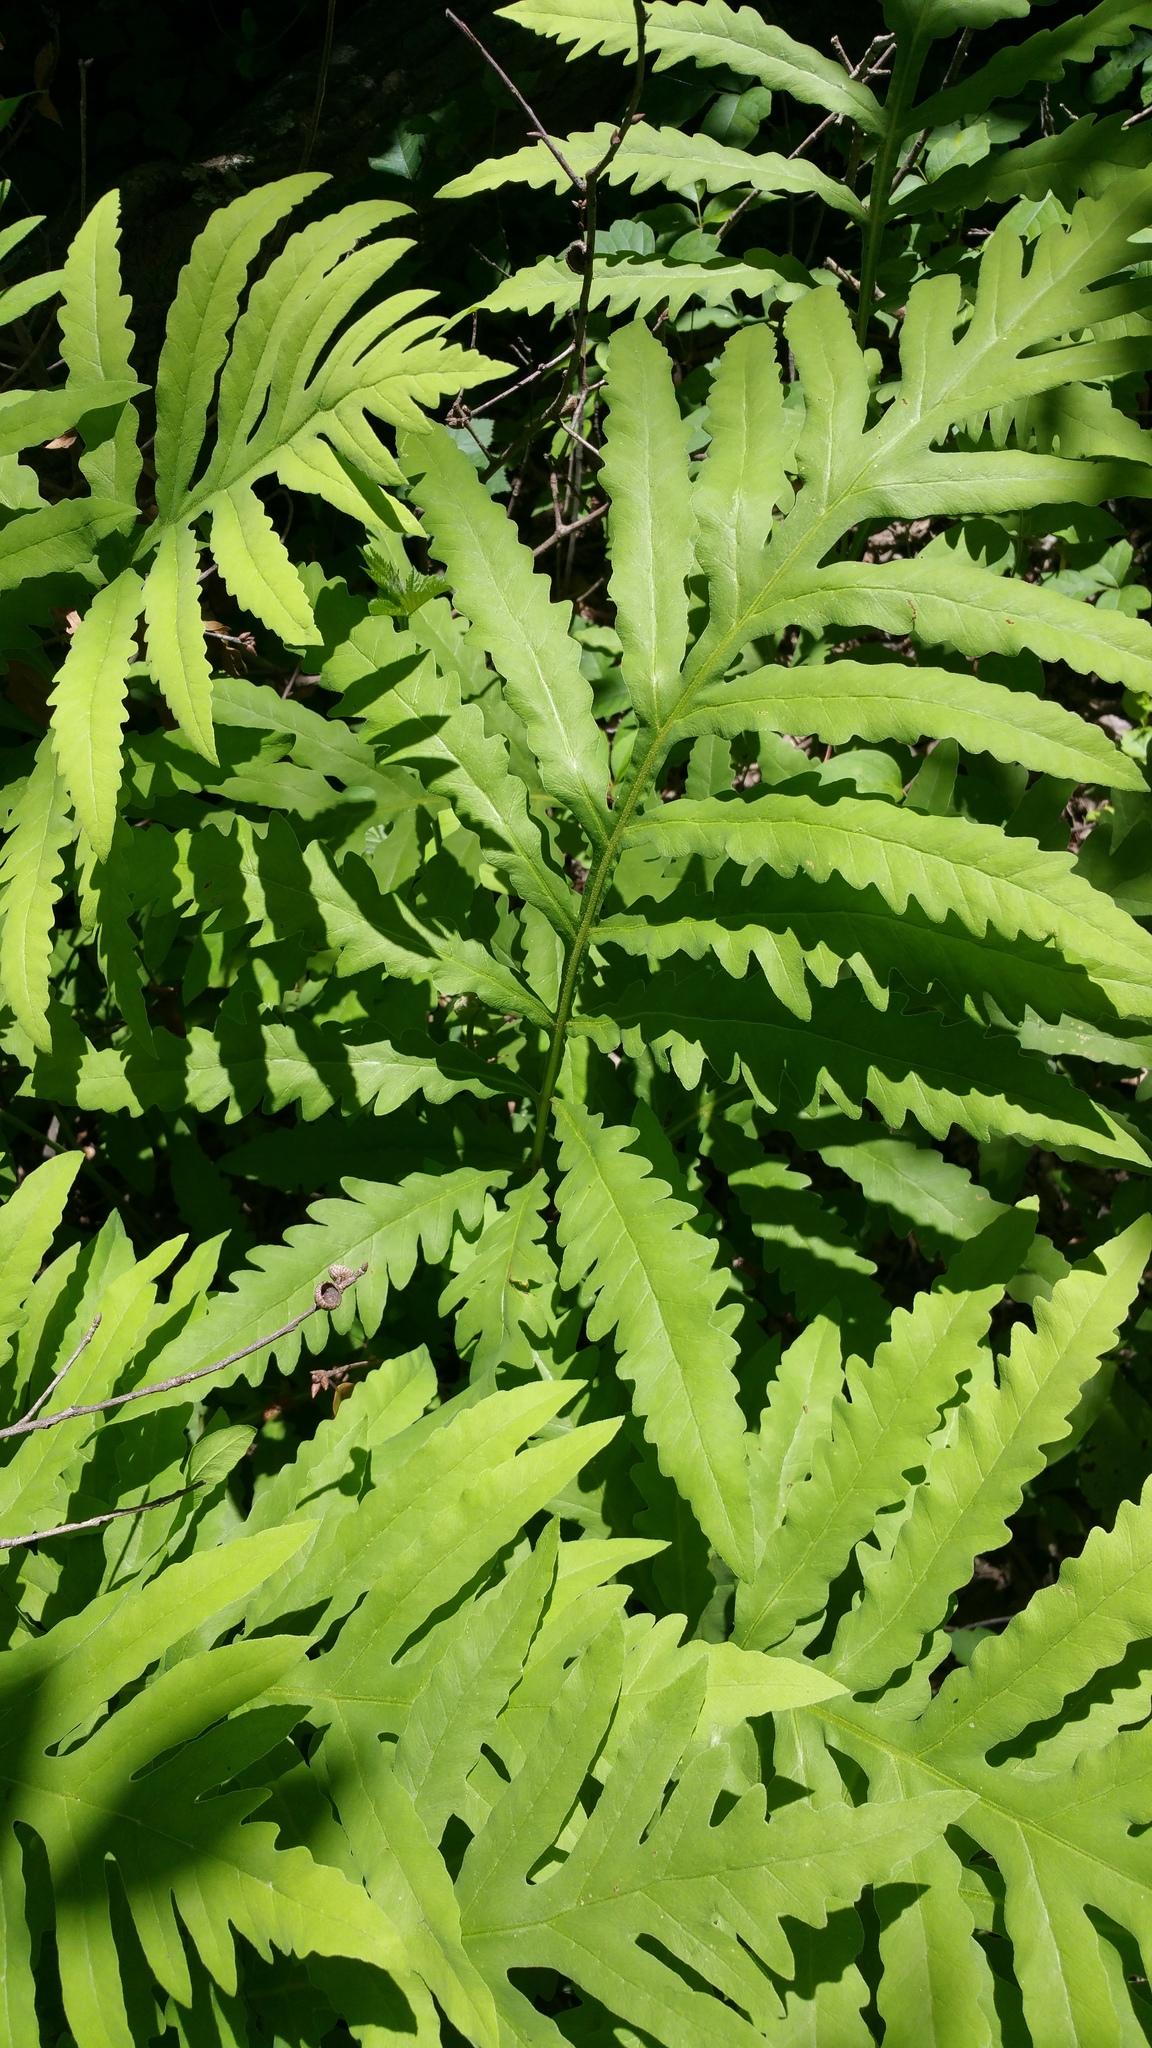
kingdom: Plantae
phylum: Tracheophyta
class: Polypodiopsida
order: Polypodiales
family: Onocleaceae
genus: Onoclea
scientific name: Onoclea sensibilis
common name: Sensitive fern
